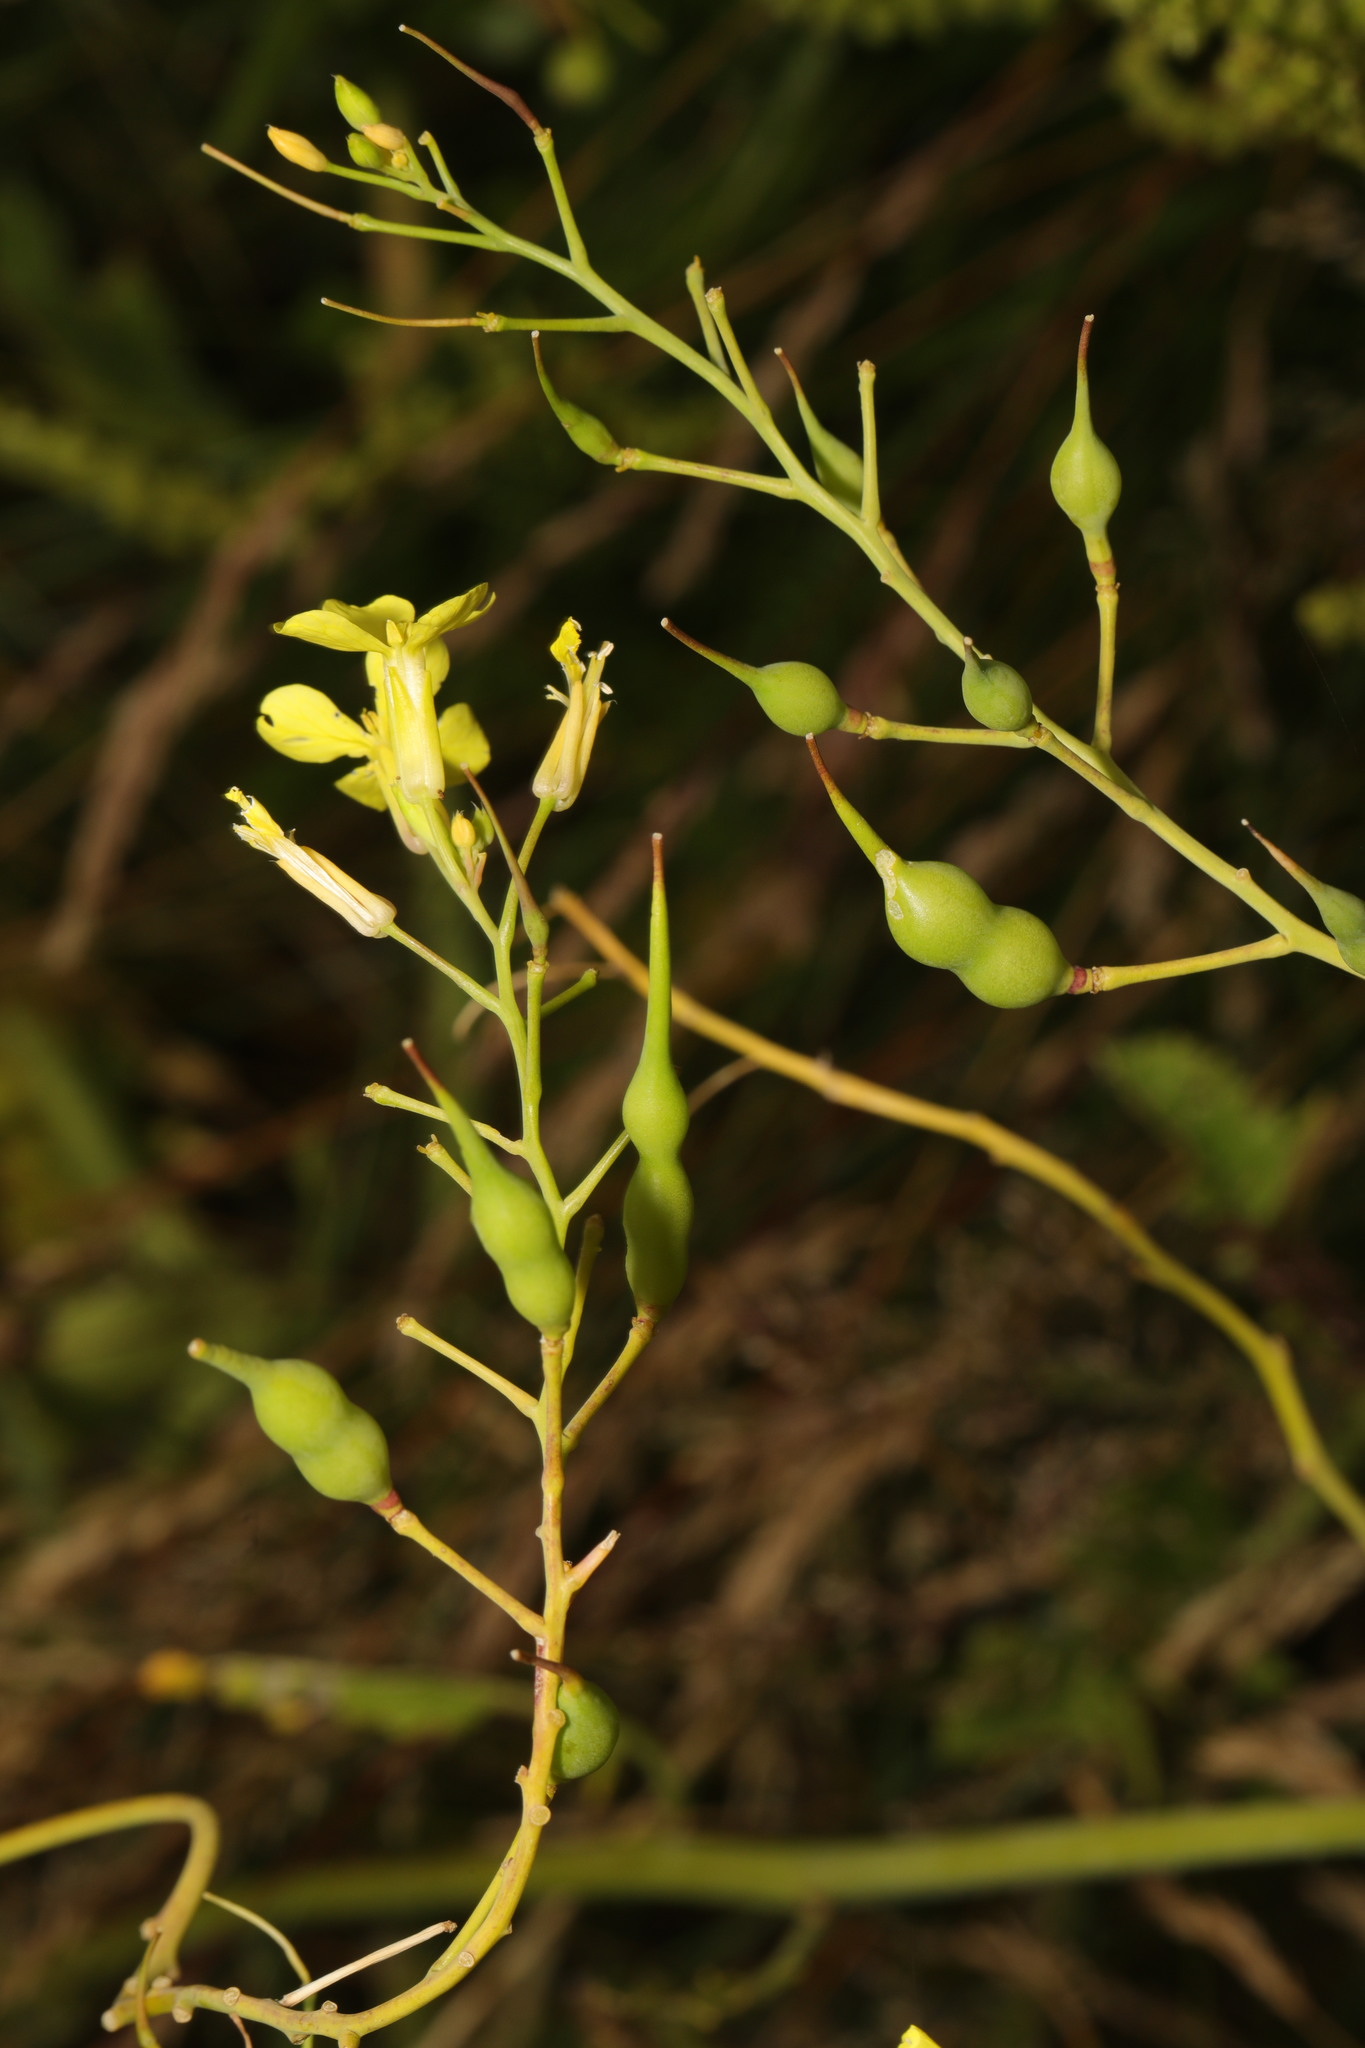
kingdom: Plantae
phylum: Tracheophyta
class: Magnoliopsida
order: Brassicales
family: Brassicaceae
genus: Raphanus
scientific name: Raphanus raphanistrum
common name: Wild radish
